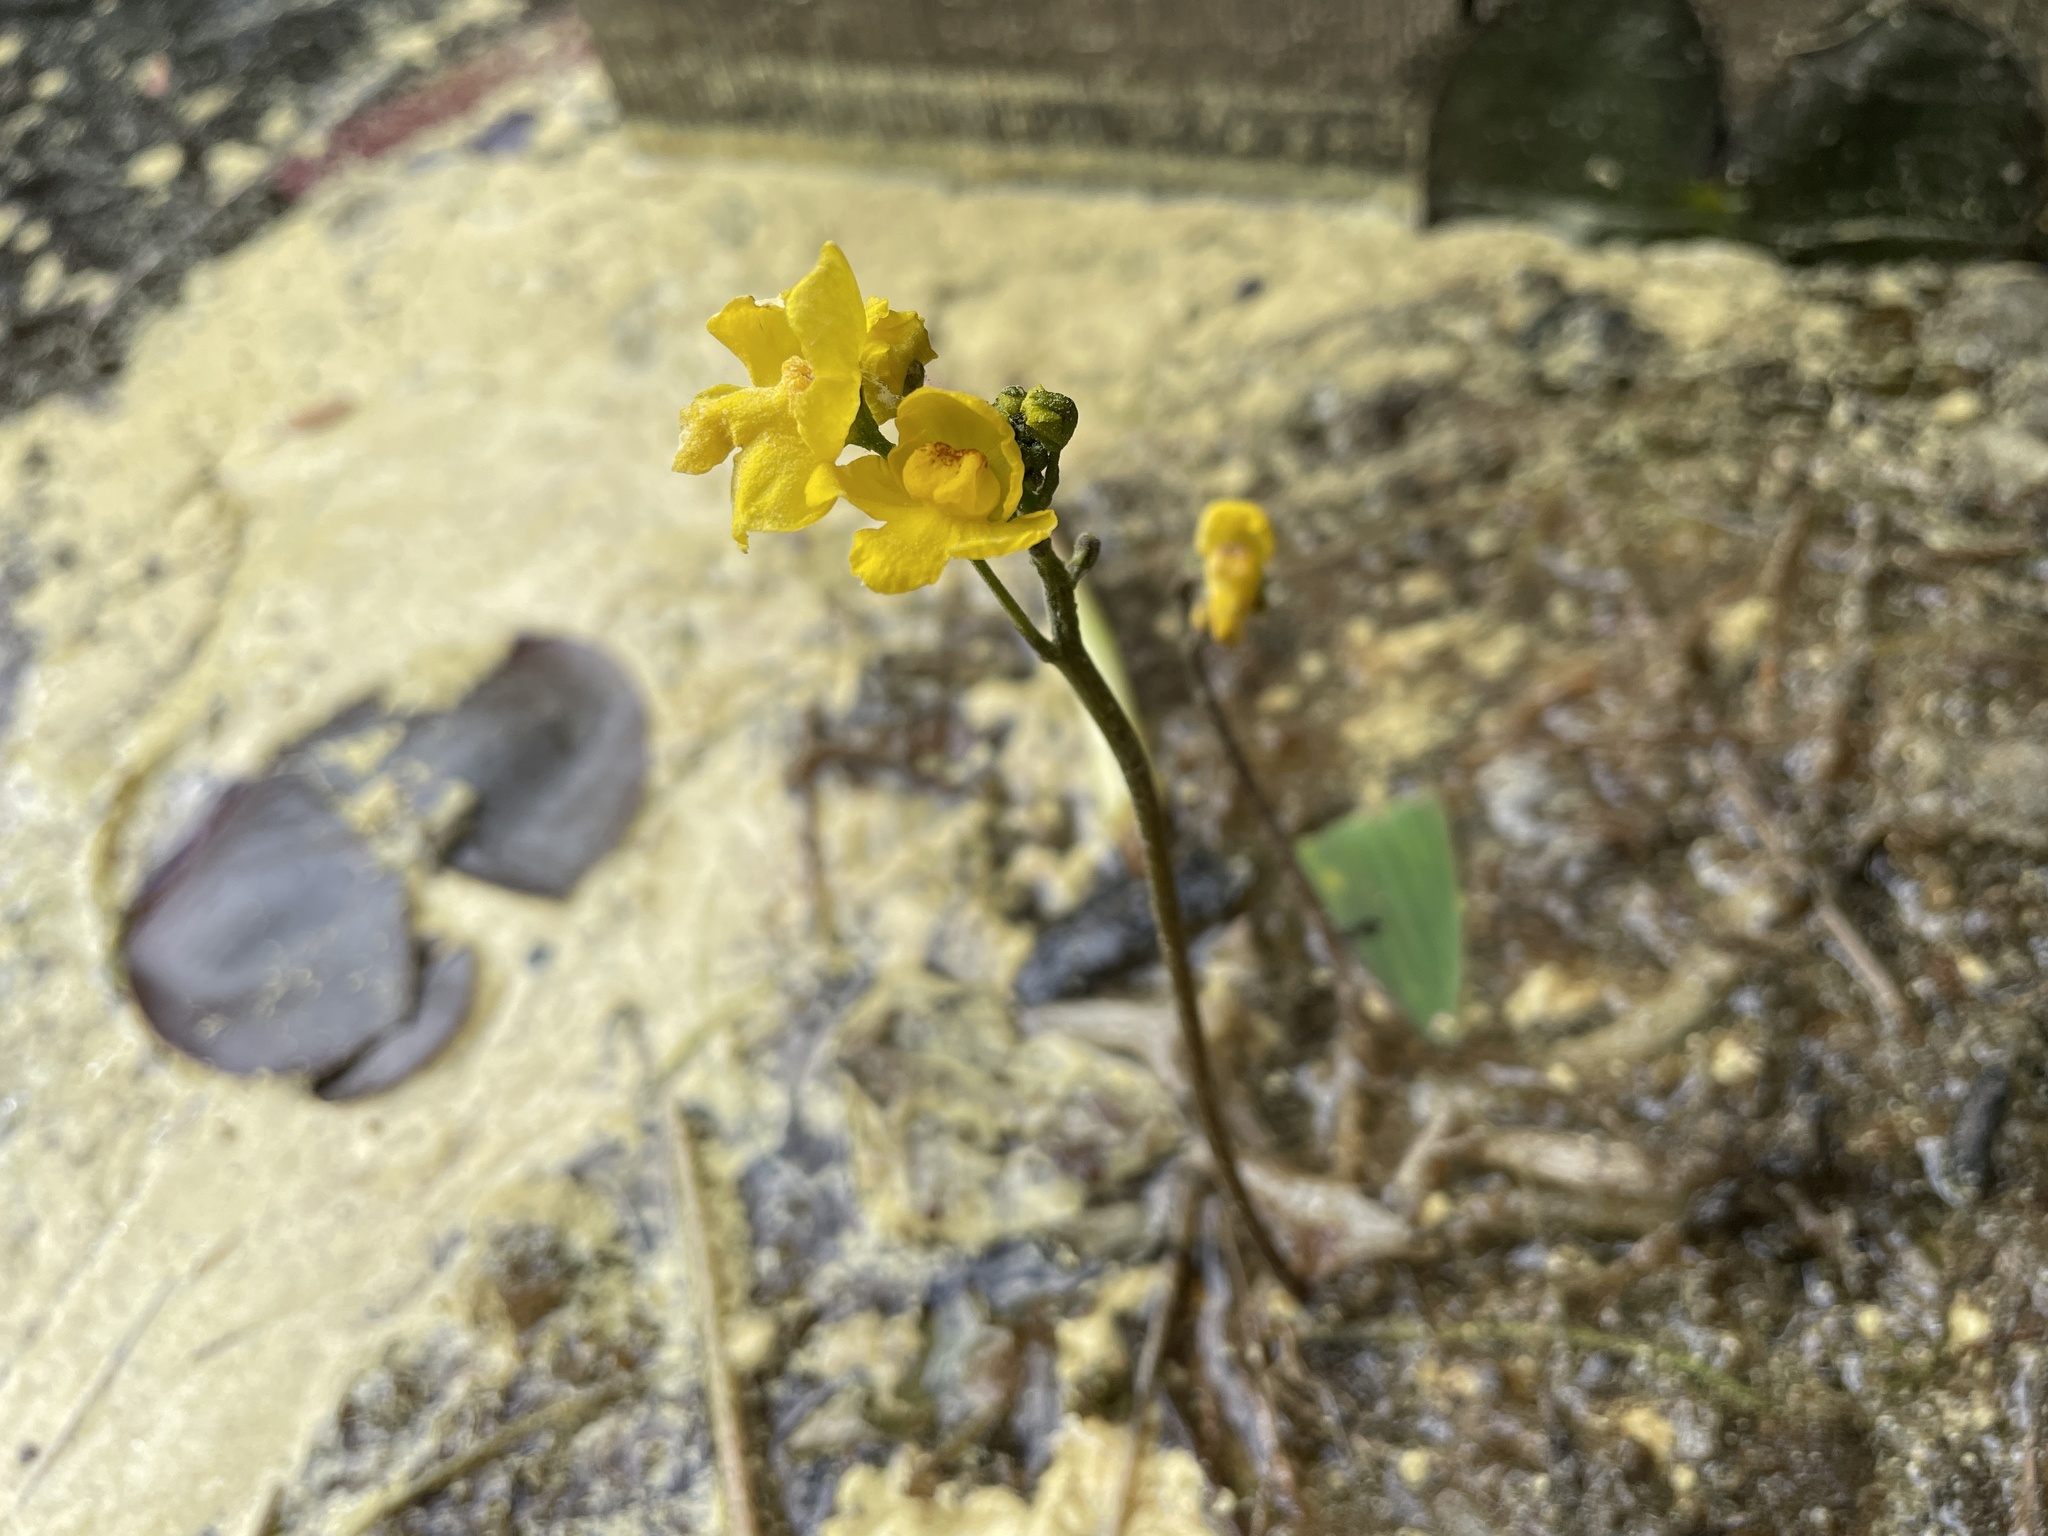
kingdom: Plantae
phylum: Tracheophyta
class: Magnoliopsida
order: Lamiales
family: Lentibulariaceae
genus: Utricularia
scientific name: Utricularia inflata
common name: Floating bladderwort
